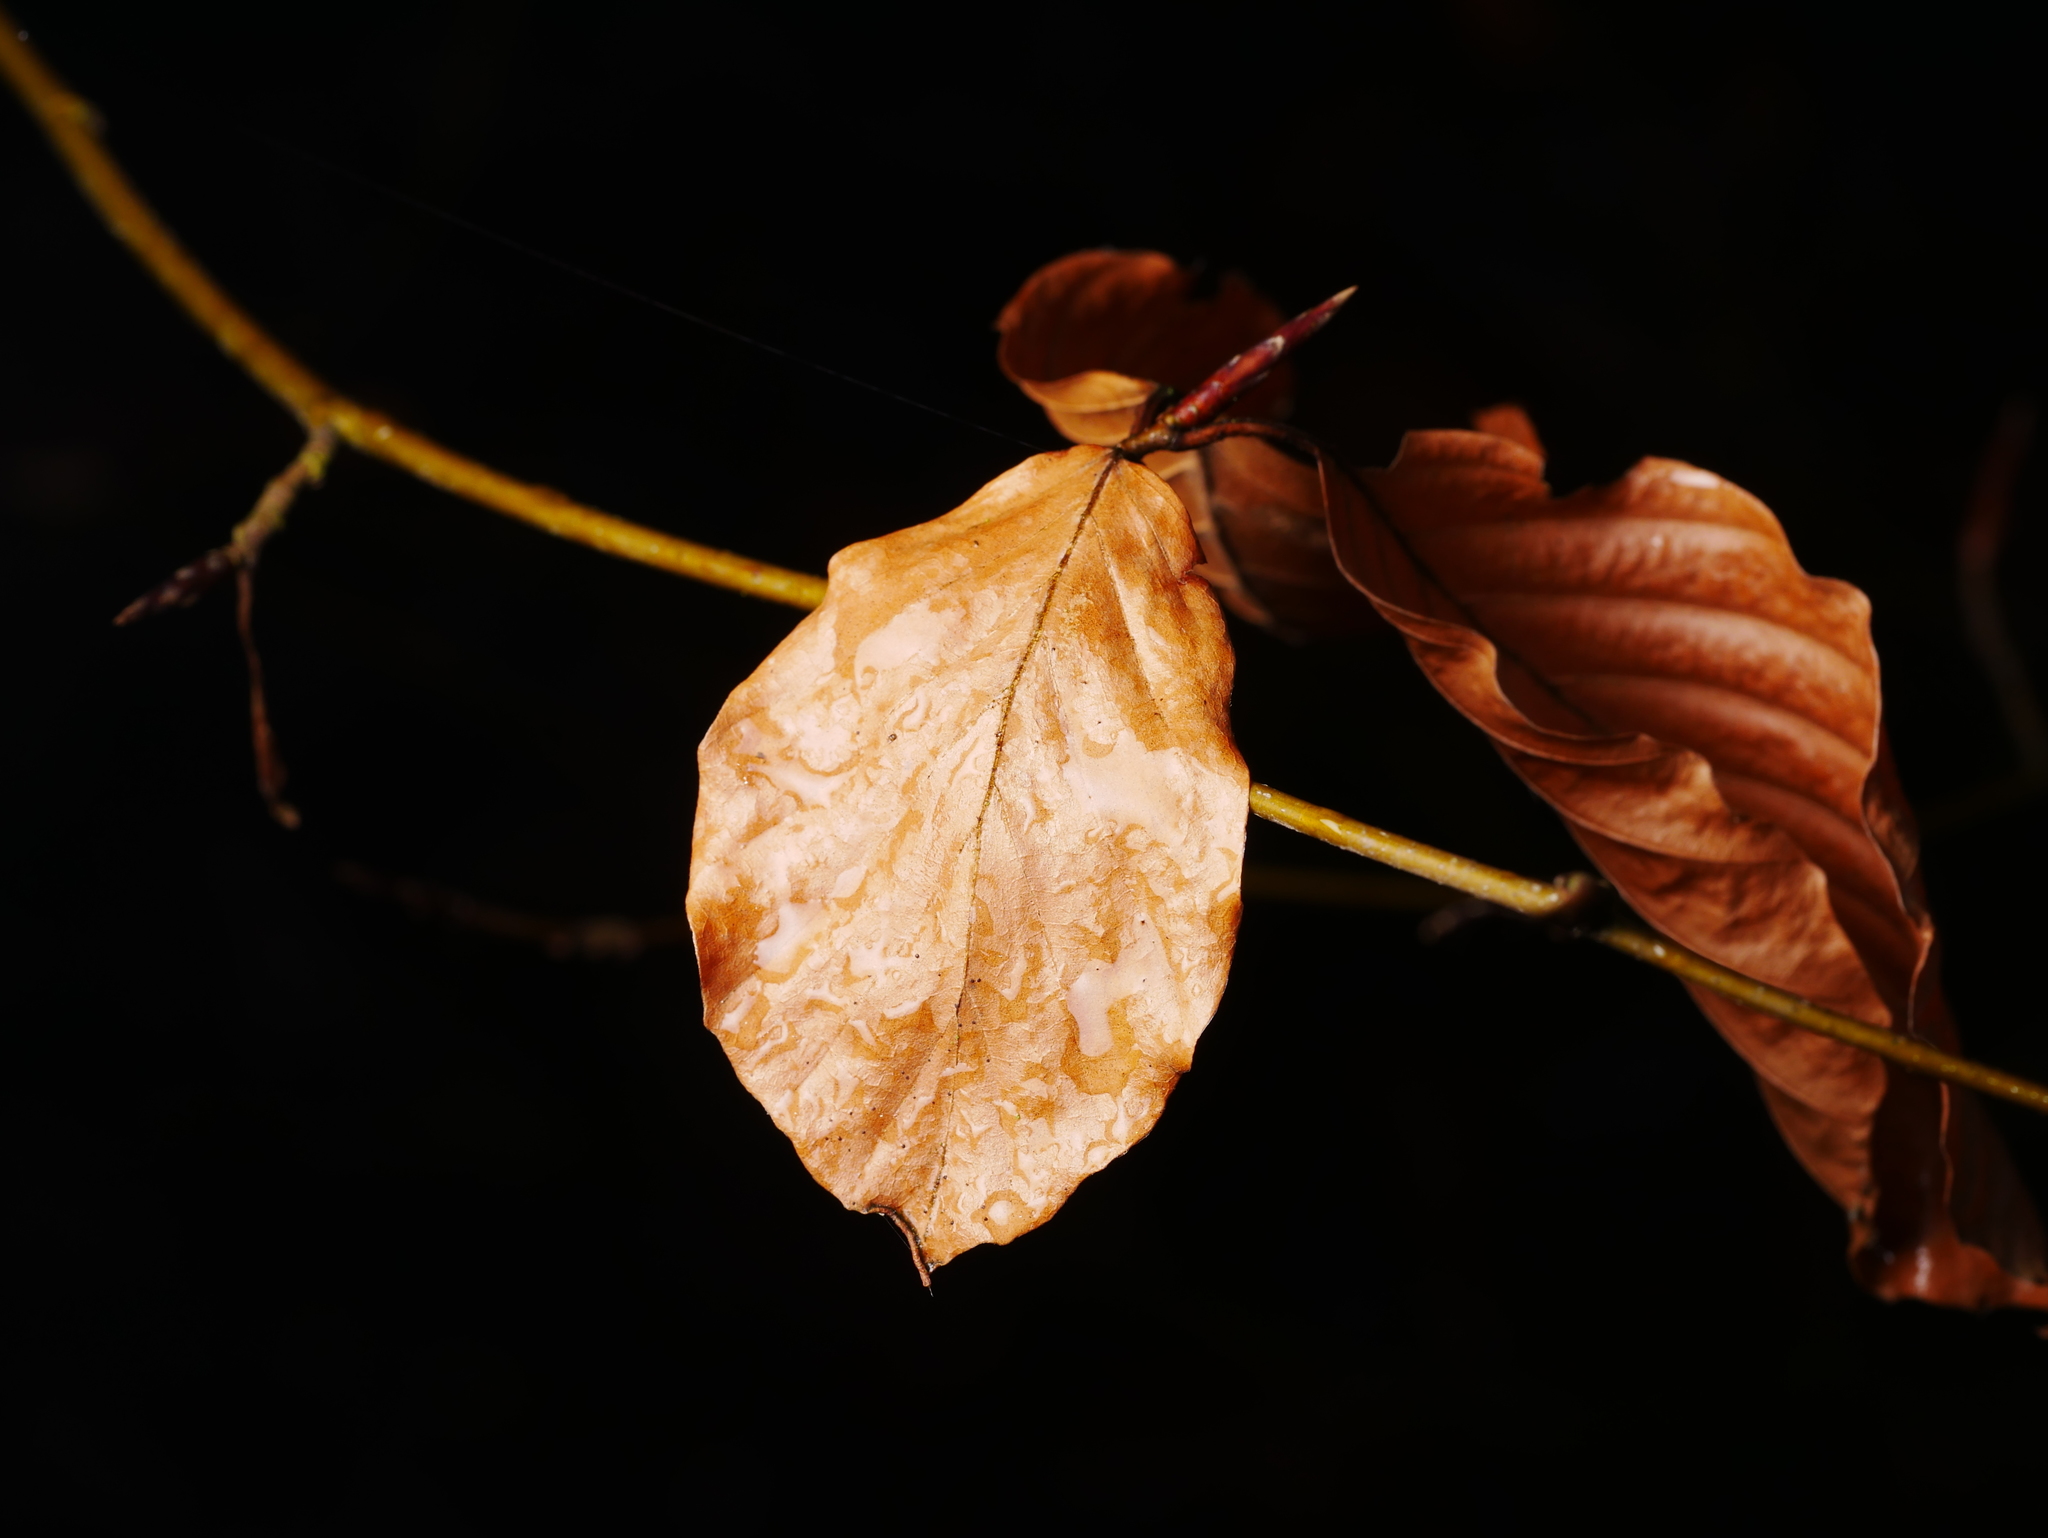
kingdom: Plantae
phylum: Tracheophyta
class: Magnoliopsida
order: Fagales
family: Fagaceae
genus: Fagus
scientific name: Fagus sylvatica
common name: Beech
